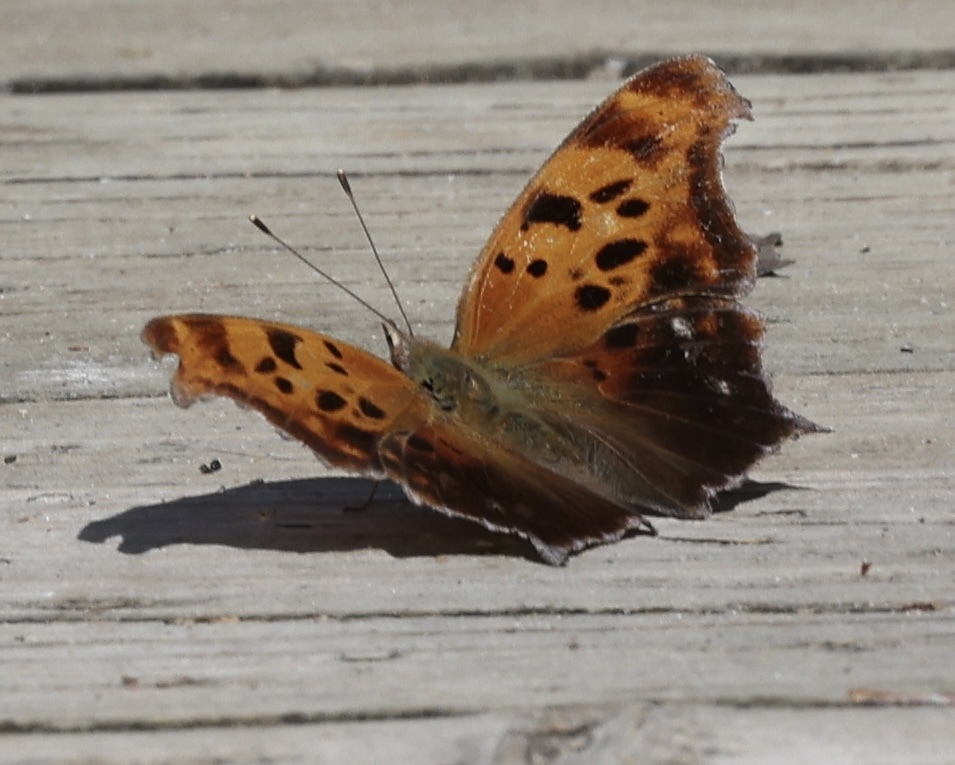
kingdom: Animalia
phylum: Arthropoda
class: Insecta
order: Lepidoptera
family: Nymphalidae
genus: Polygonia
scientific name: Polygonia interrogationis
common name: Question mark
